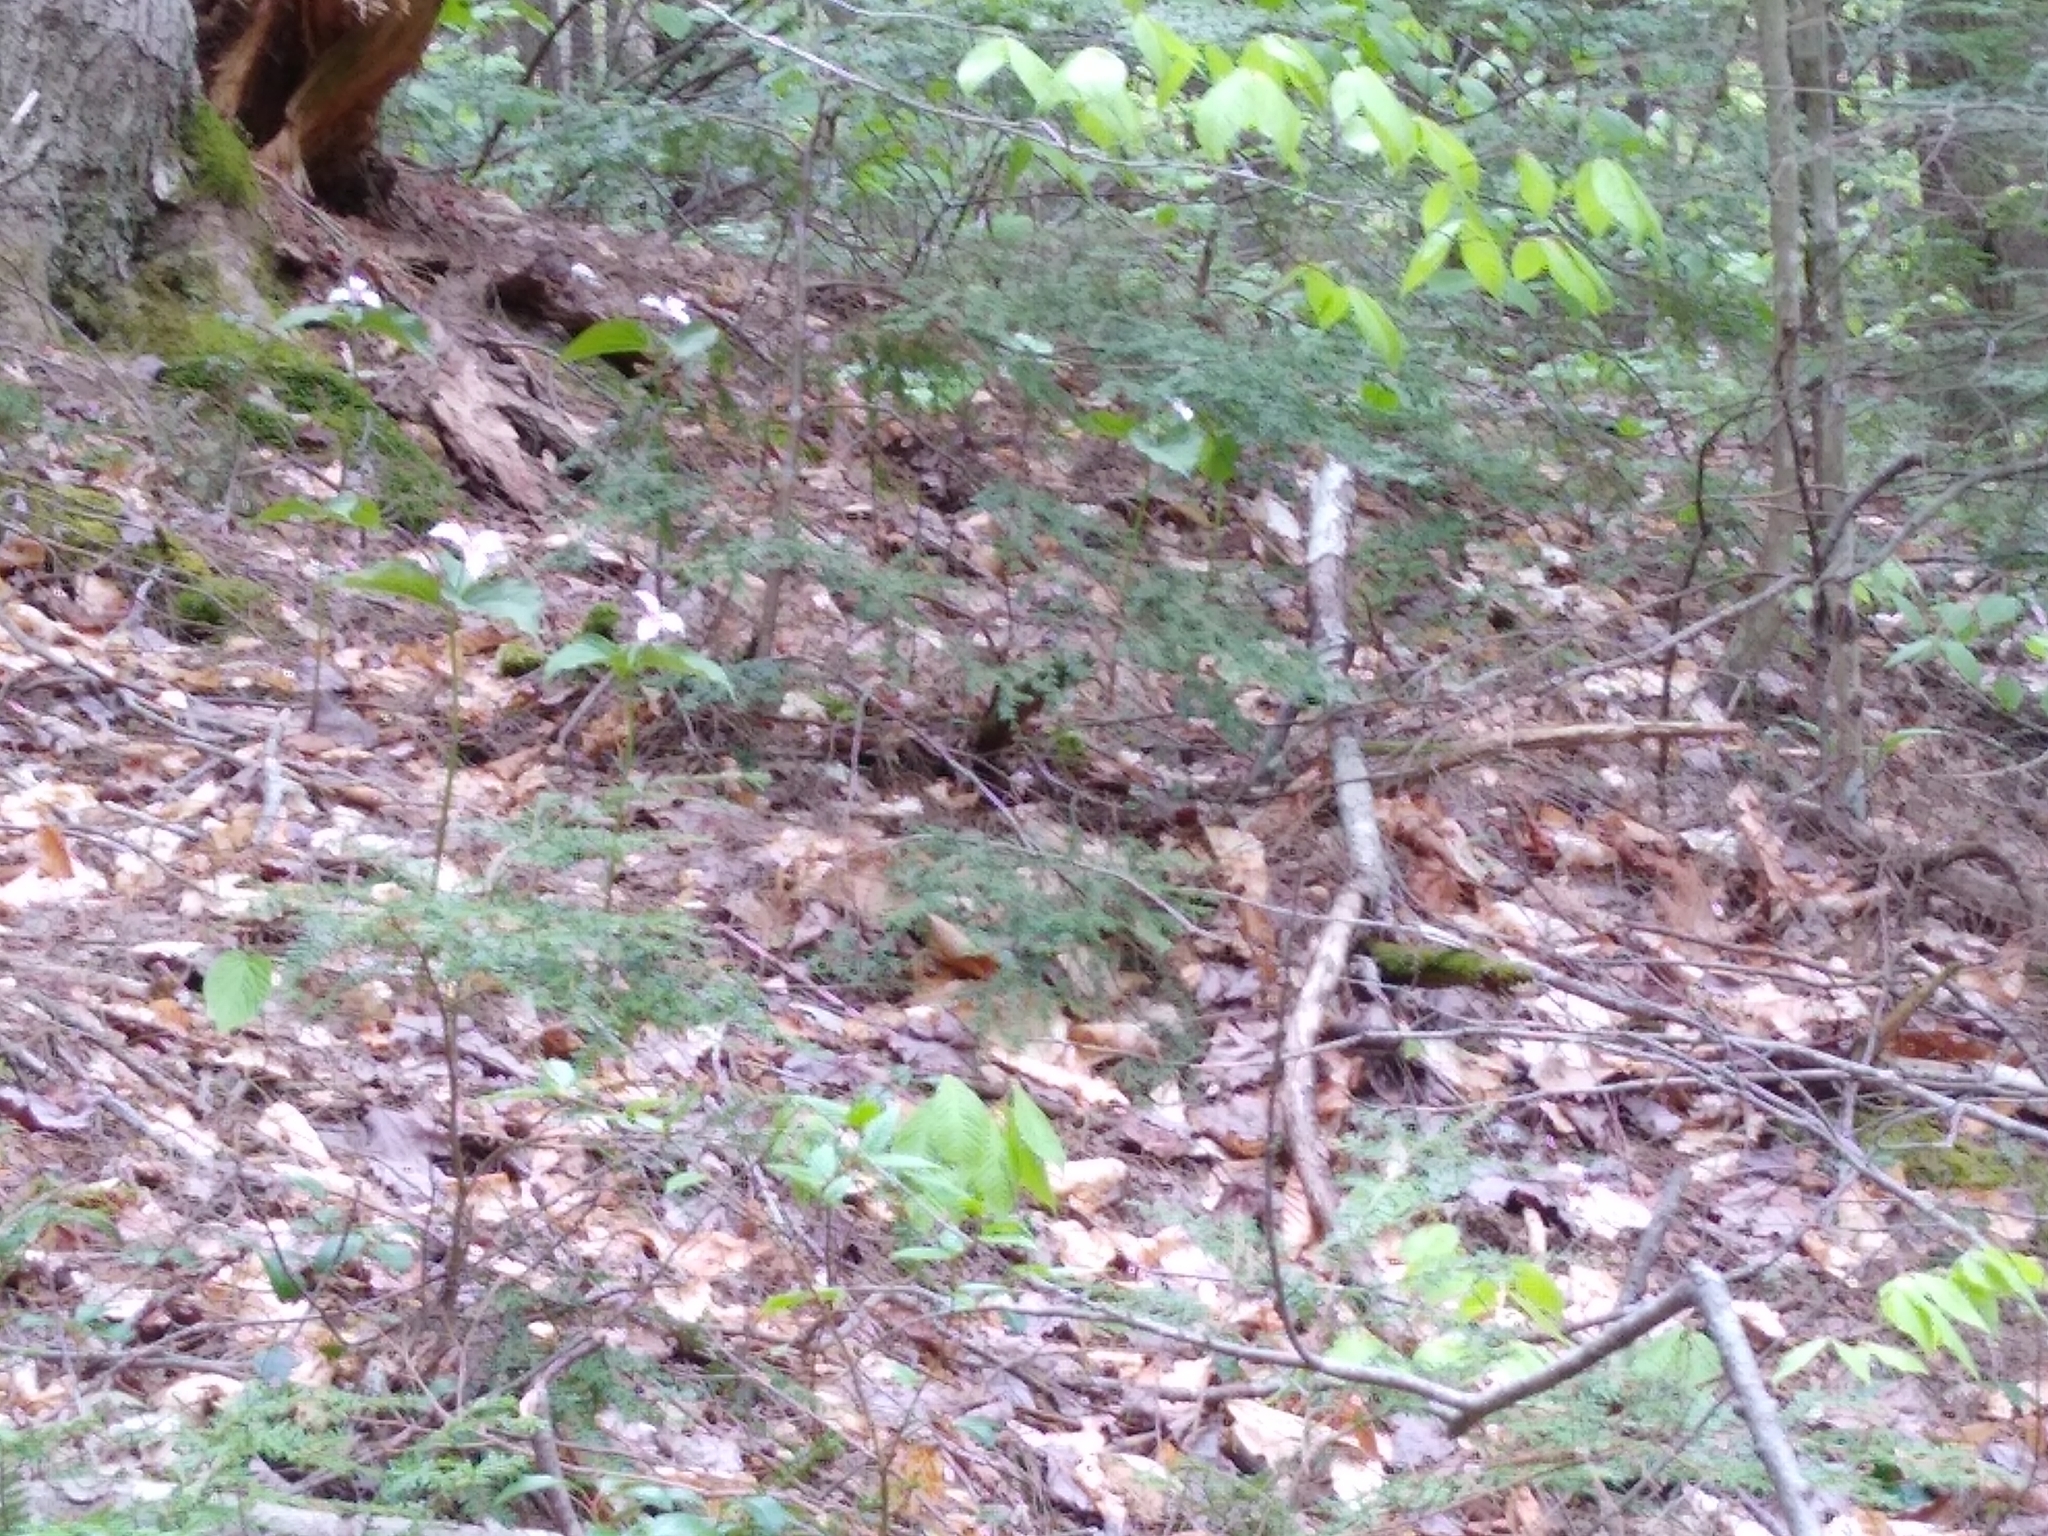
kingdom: Plantae
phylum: Tracheophyta
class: Liliopsida
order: Liliales
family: Melanthiaceae
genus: Trillium
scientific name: Trillium undulatum
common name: Paint trillium
